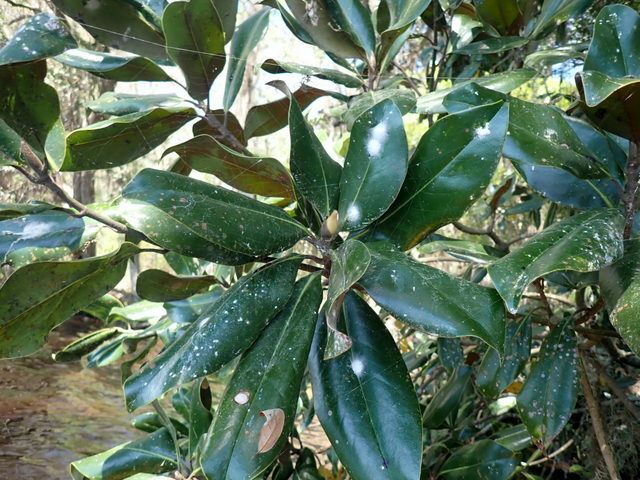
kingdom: Plantae
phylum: Tracheophyta
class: Magnoliopsida
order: Magnoliales
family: Magnoliaceae
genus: Magnolia
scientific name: Magnolia grandiflora
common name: Southern magnolia
